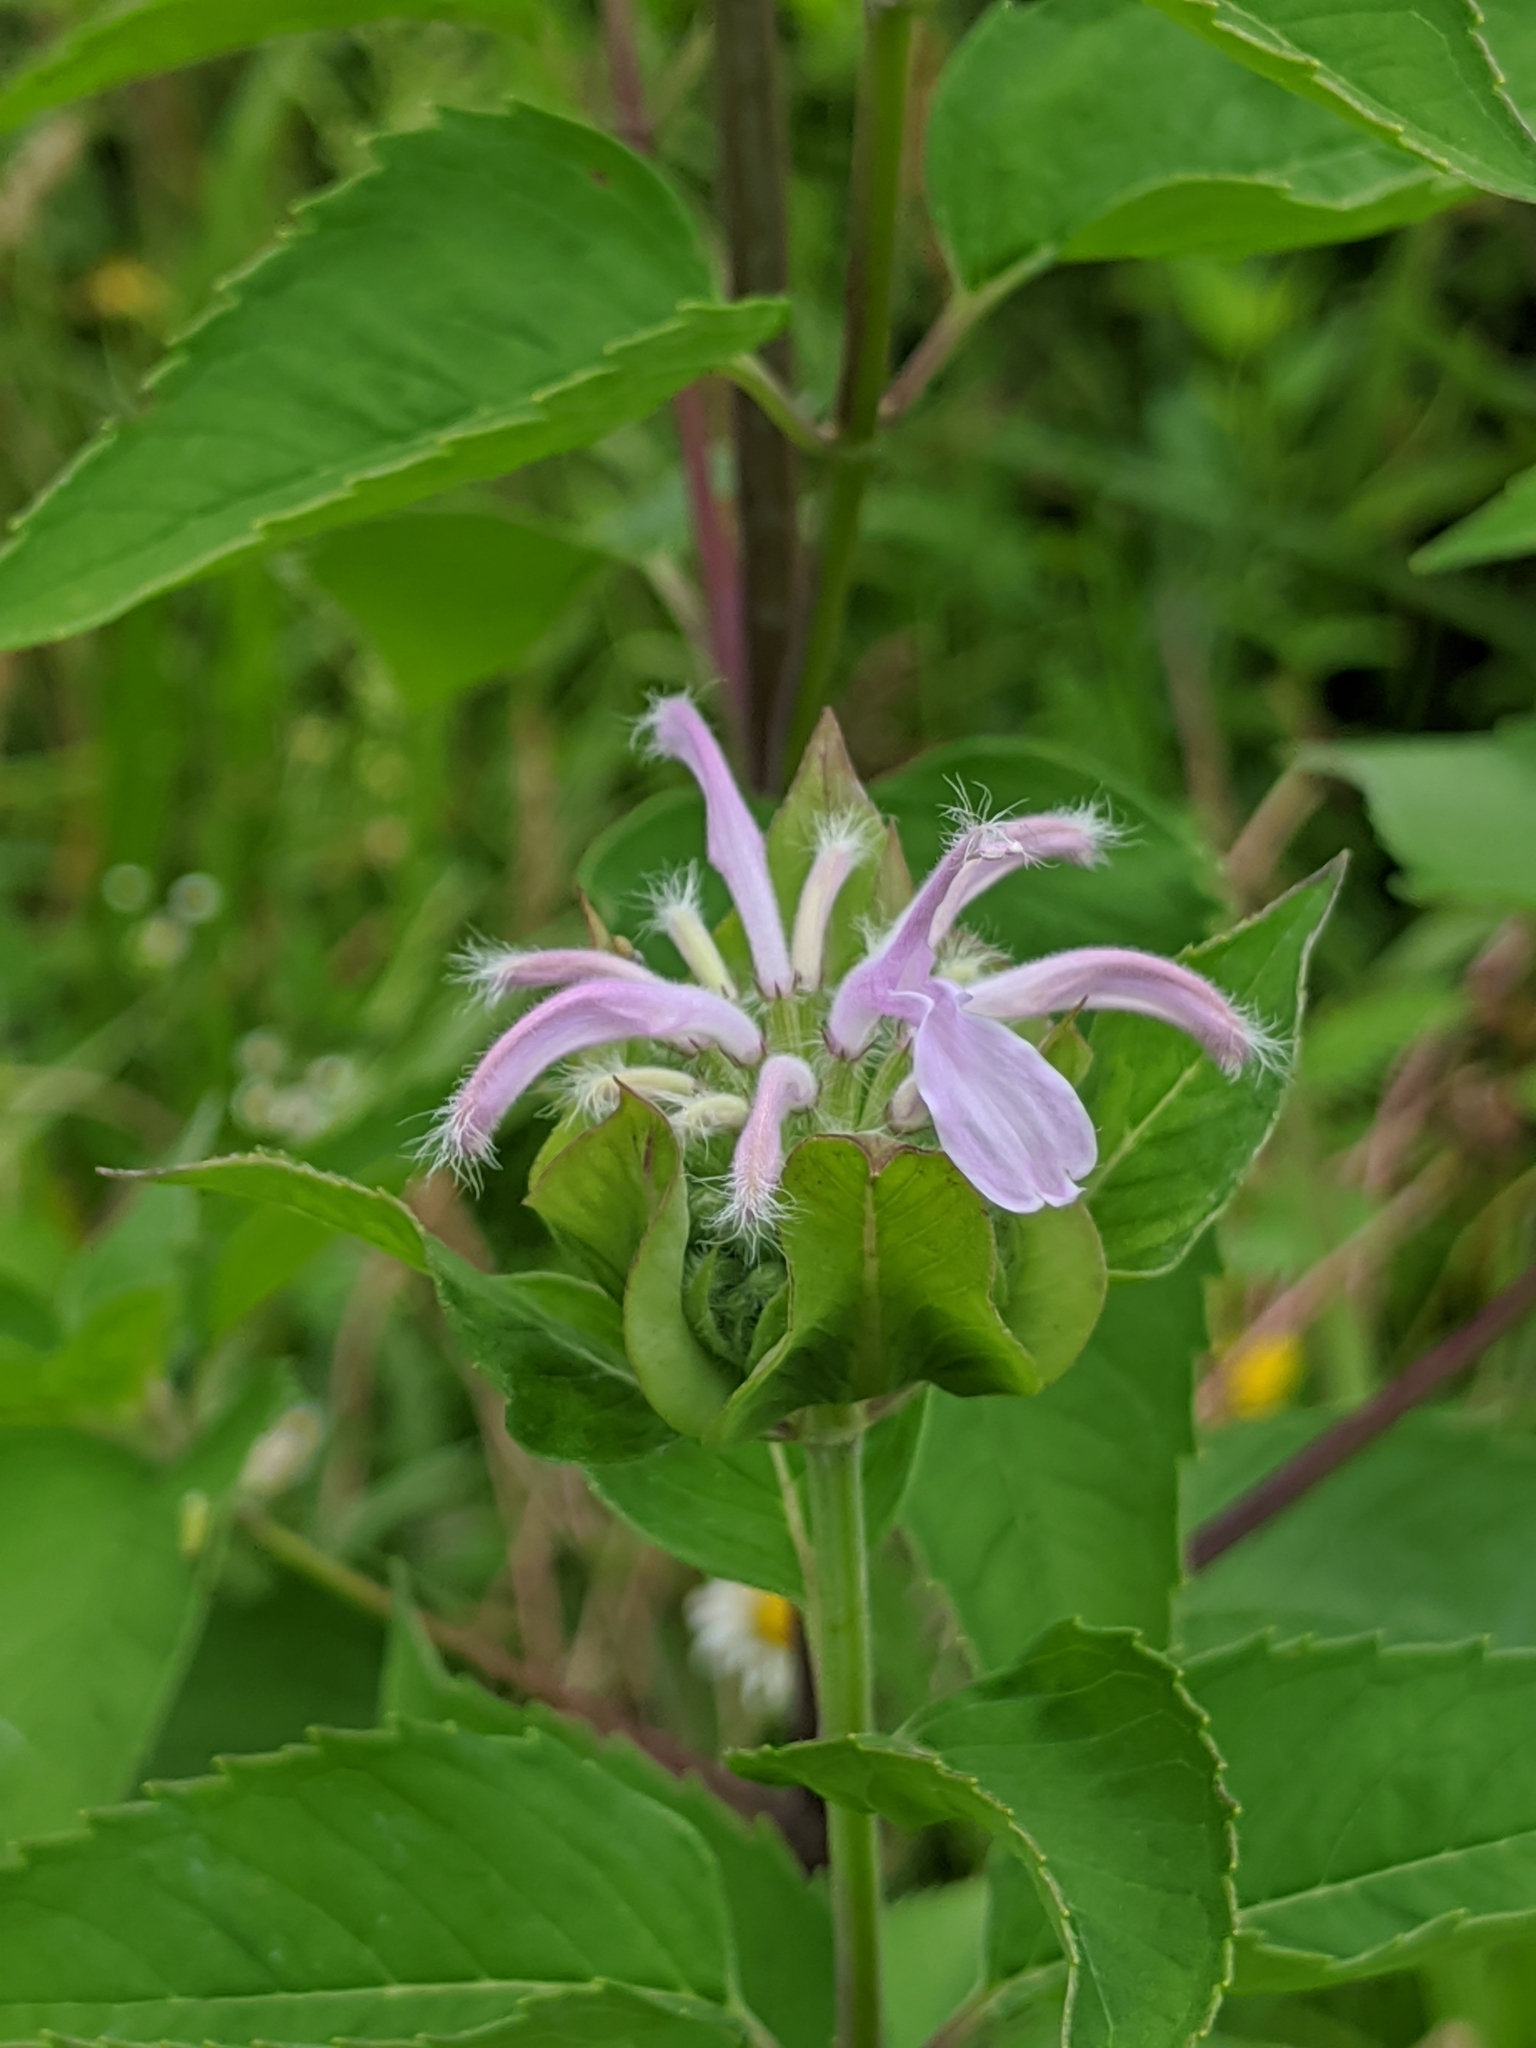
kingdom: Plantae
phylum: Tracheophyta
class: Magnoliopsida
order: Lamiales
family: Lamiaceae
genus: Monarda
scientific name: Monarda fistulosa
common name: Purple beebalm
